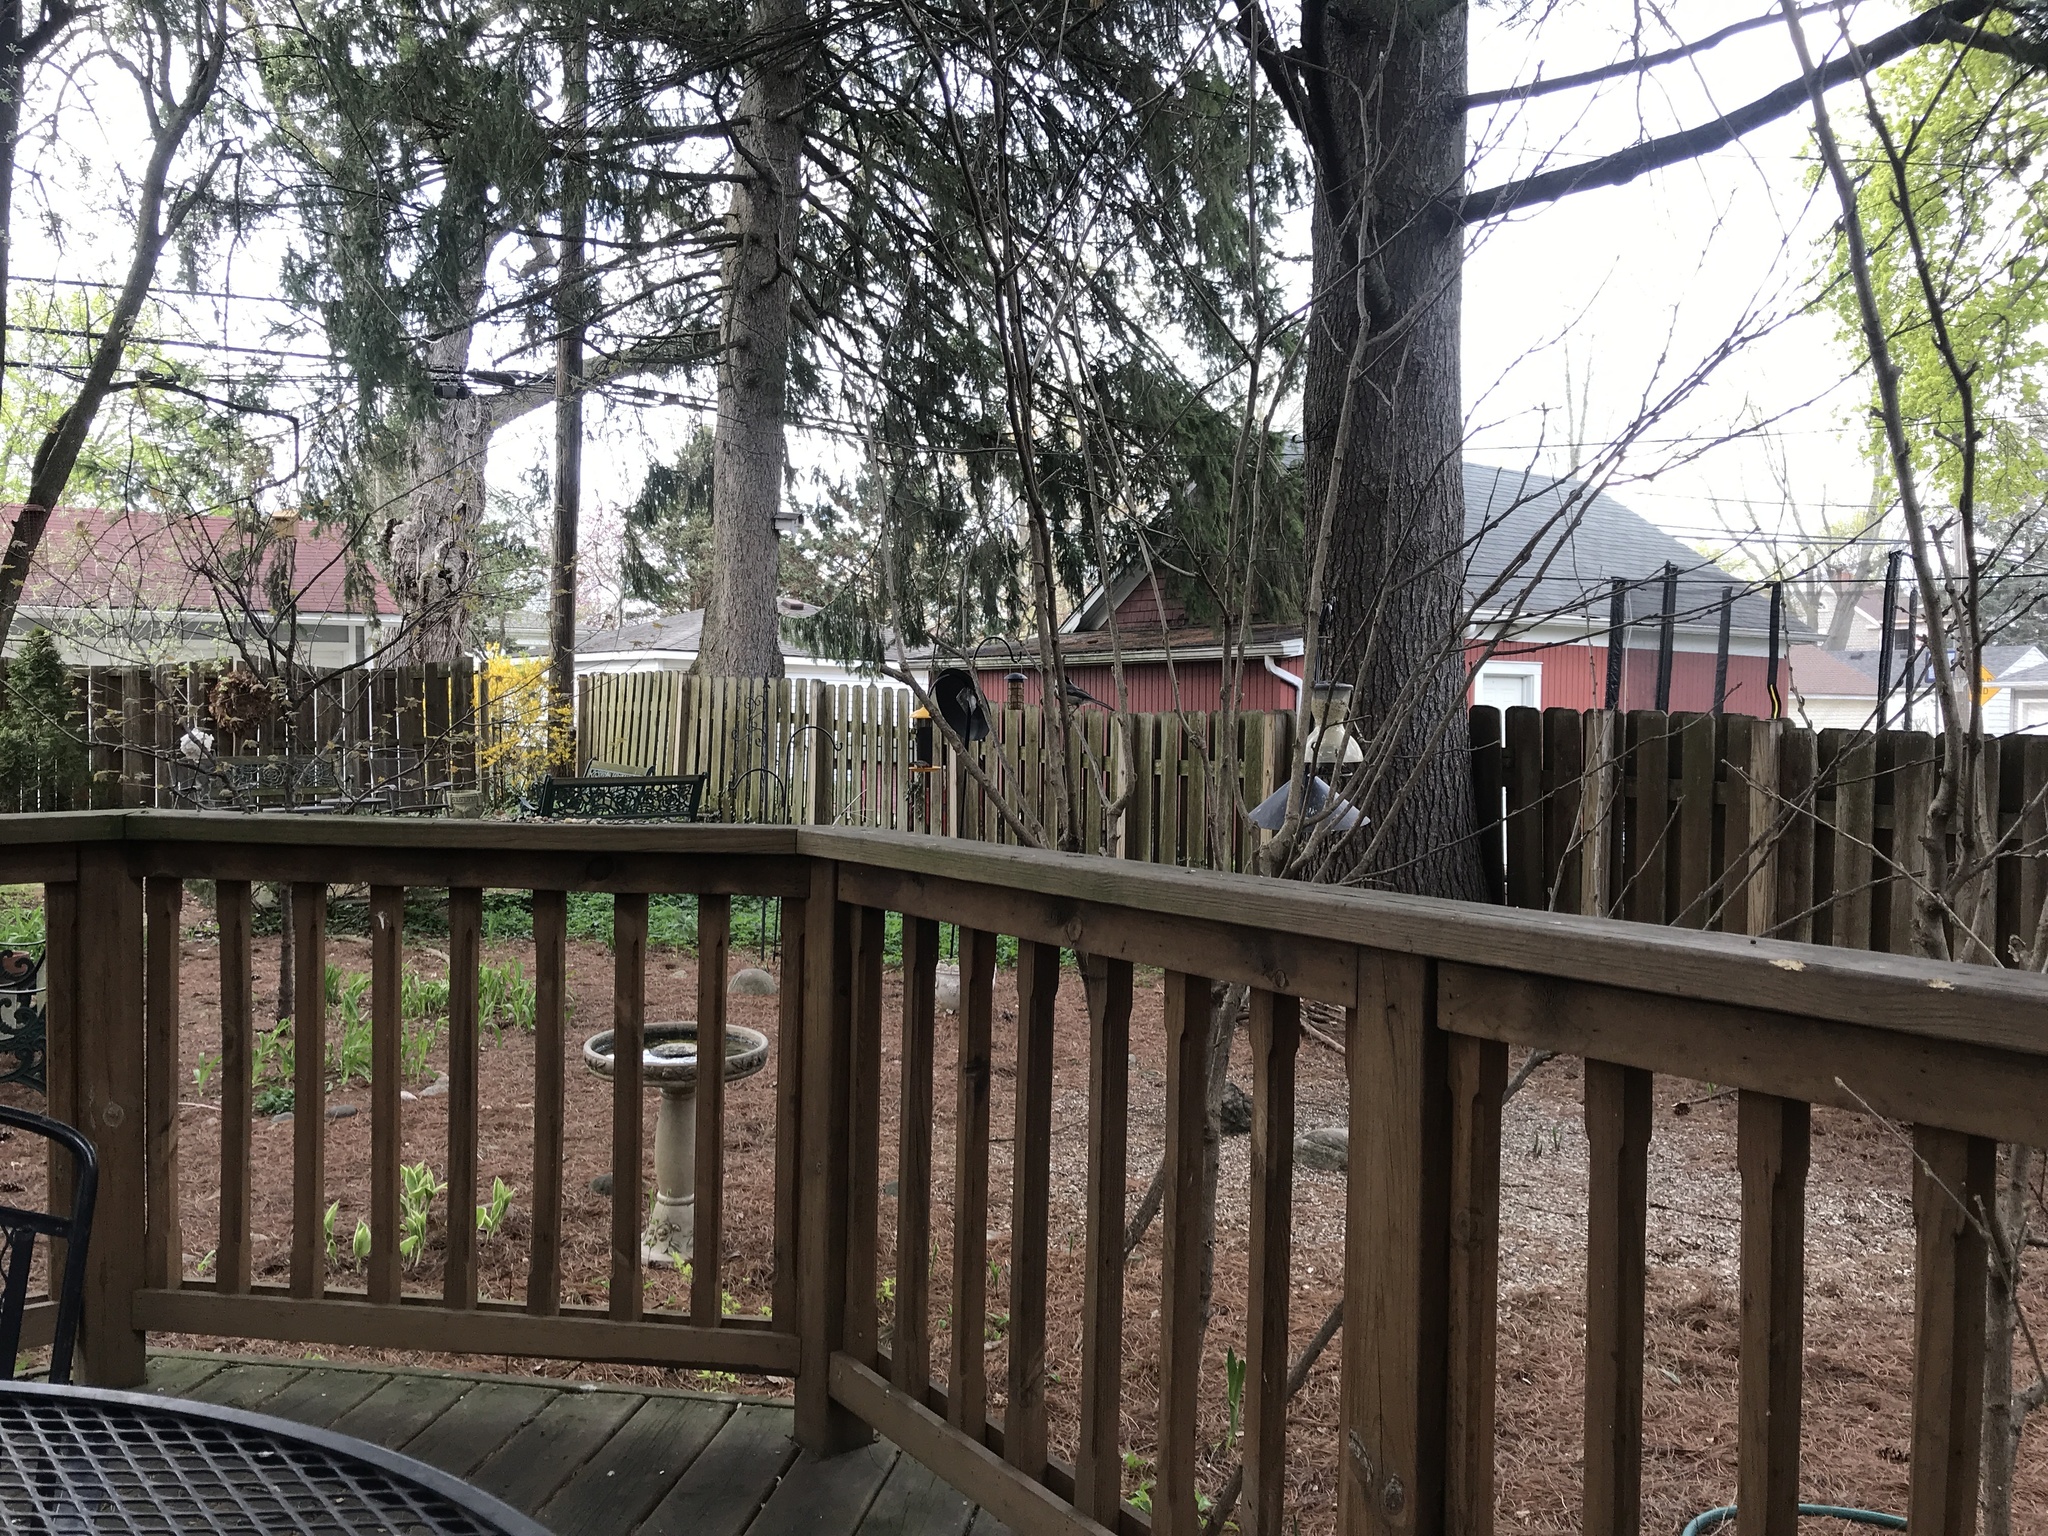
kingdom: Animalia
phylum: Chordata
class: Aves
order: Passeriformes
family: Paridae
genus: Poecile
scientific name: Poecile atricapillus
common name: Black-capped chickadee
